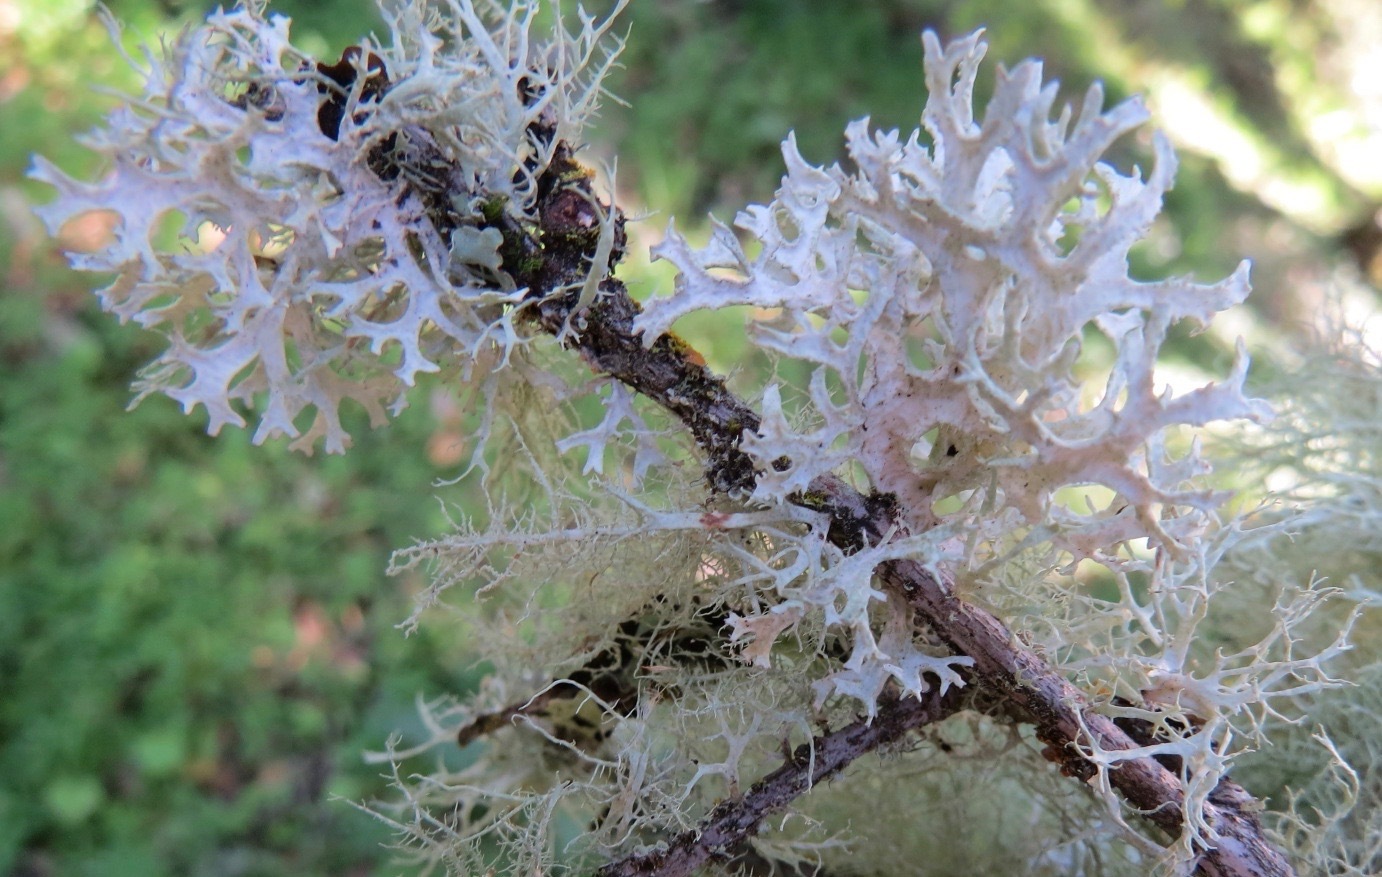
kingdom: Fungi
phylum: Ascomycota
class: Lecanoromycetes
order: Lecanorales
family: Parmeliaceae
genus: Evernia
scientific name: Evernia prunastri
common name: Oak moss
